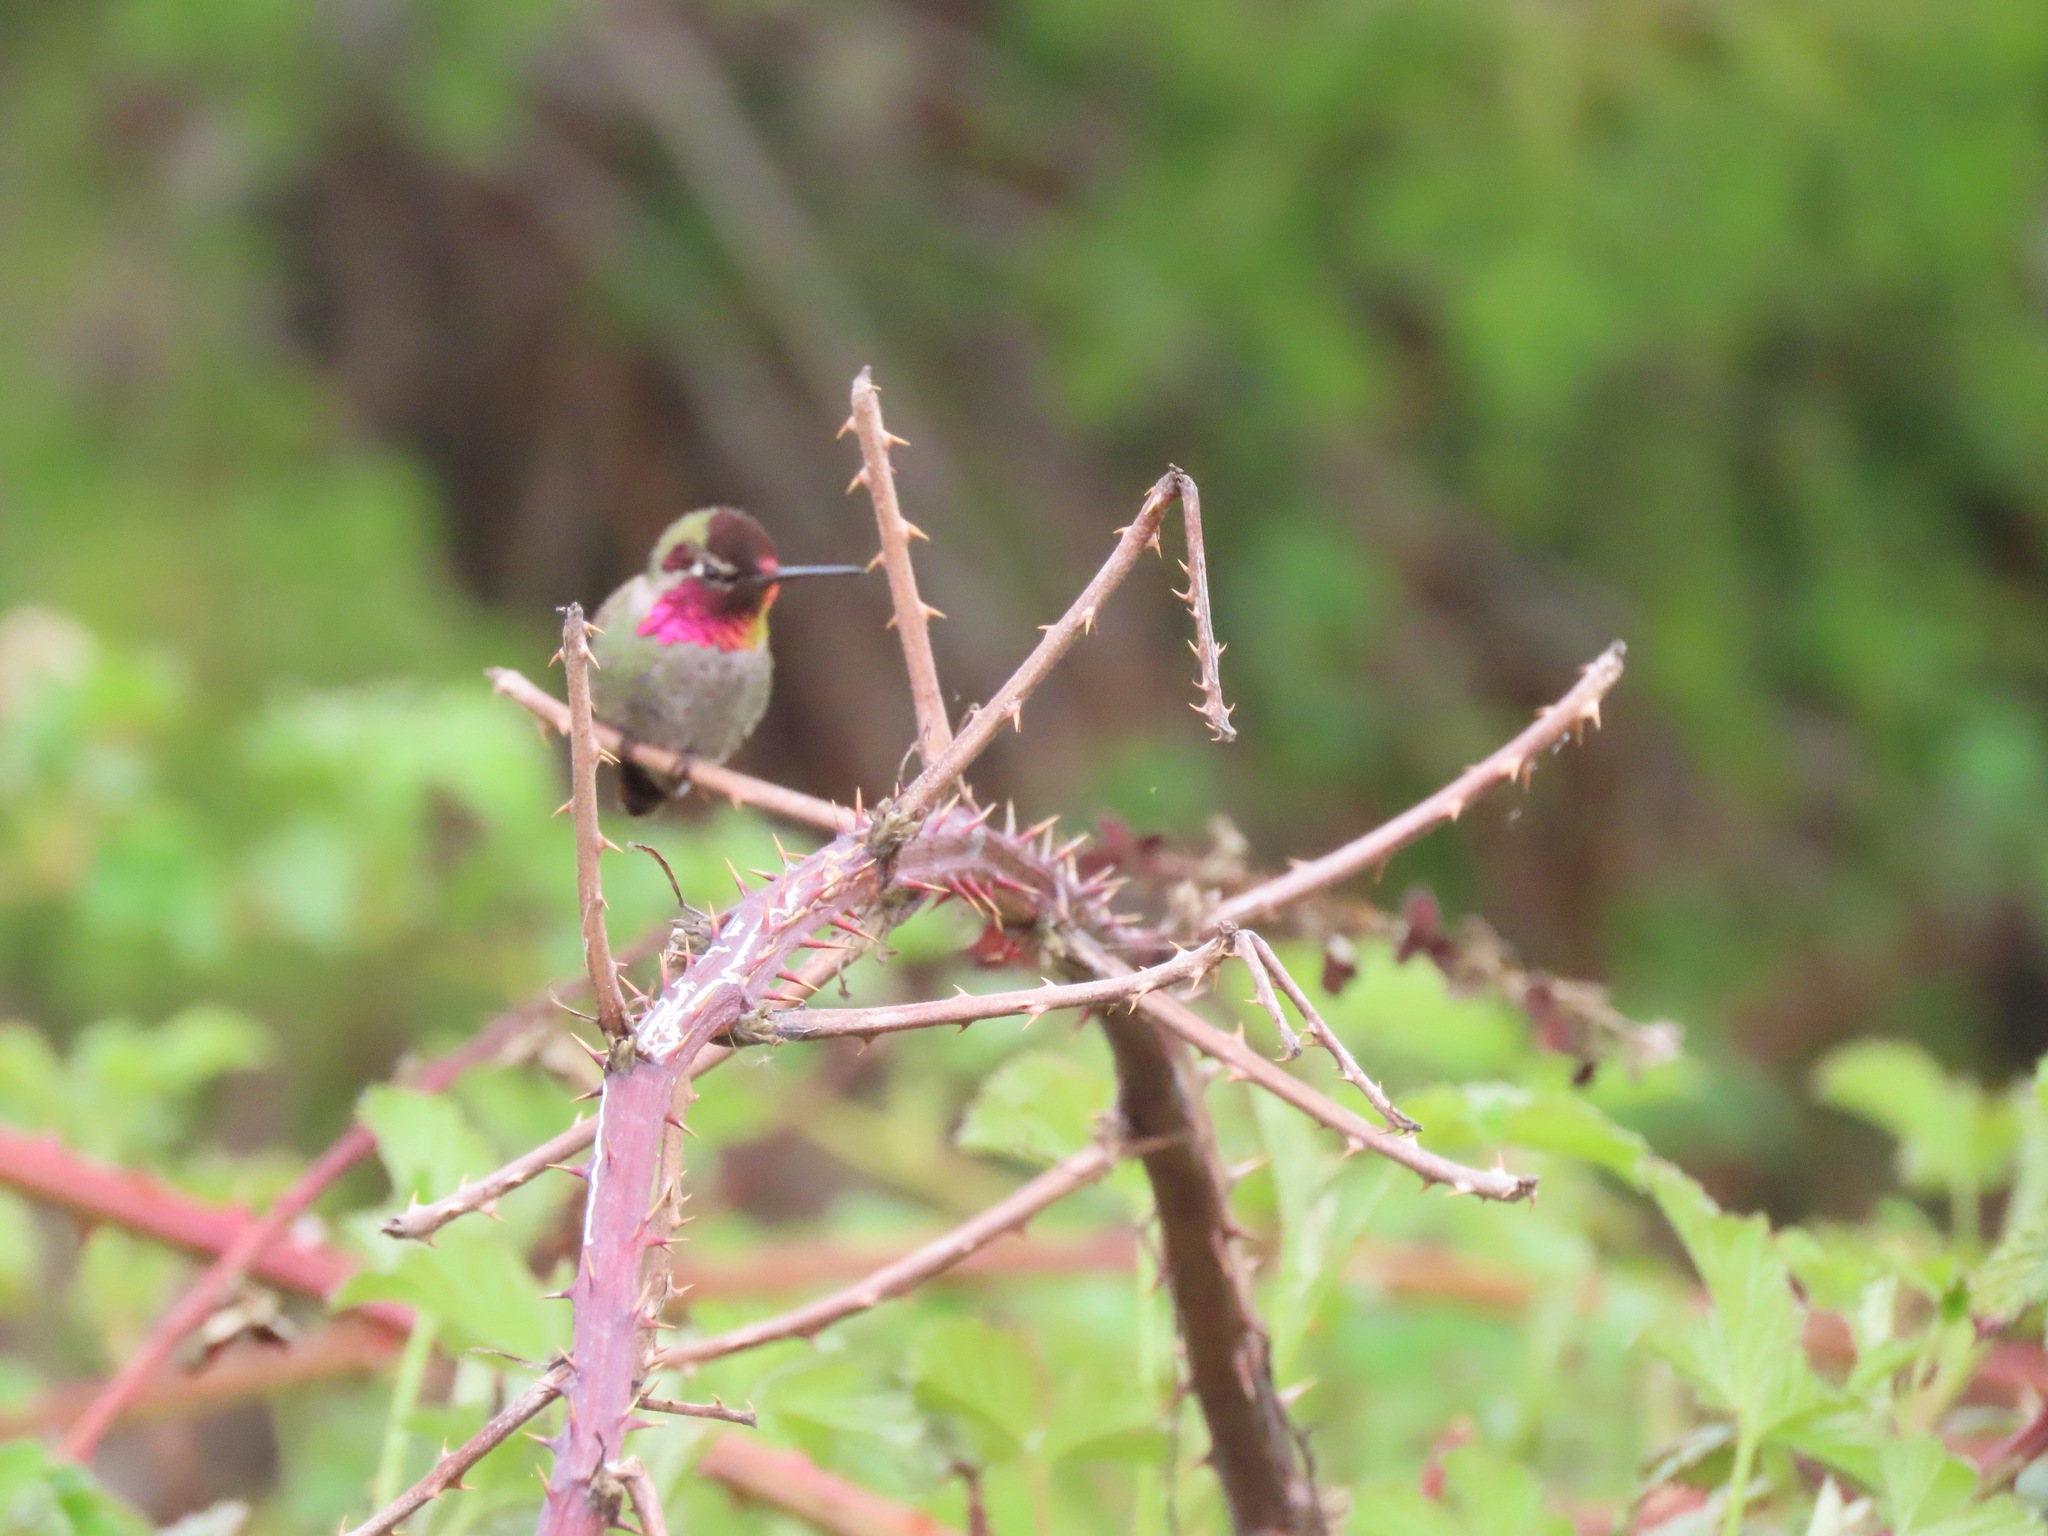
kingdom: Animalia
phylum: Chordata
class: Aves
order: Apodiformes
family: Trochilidae
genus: Calypte
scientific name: Calypte anna
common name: Anna's hummingbird
